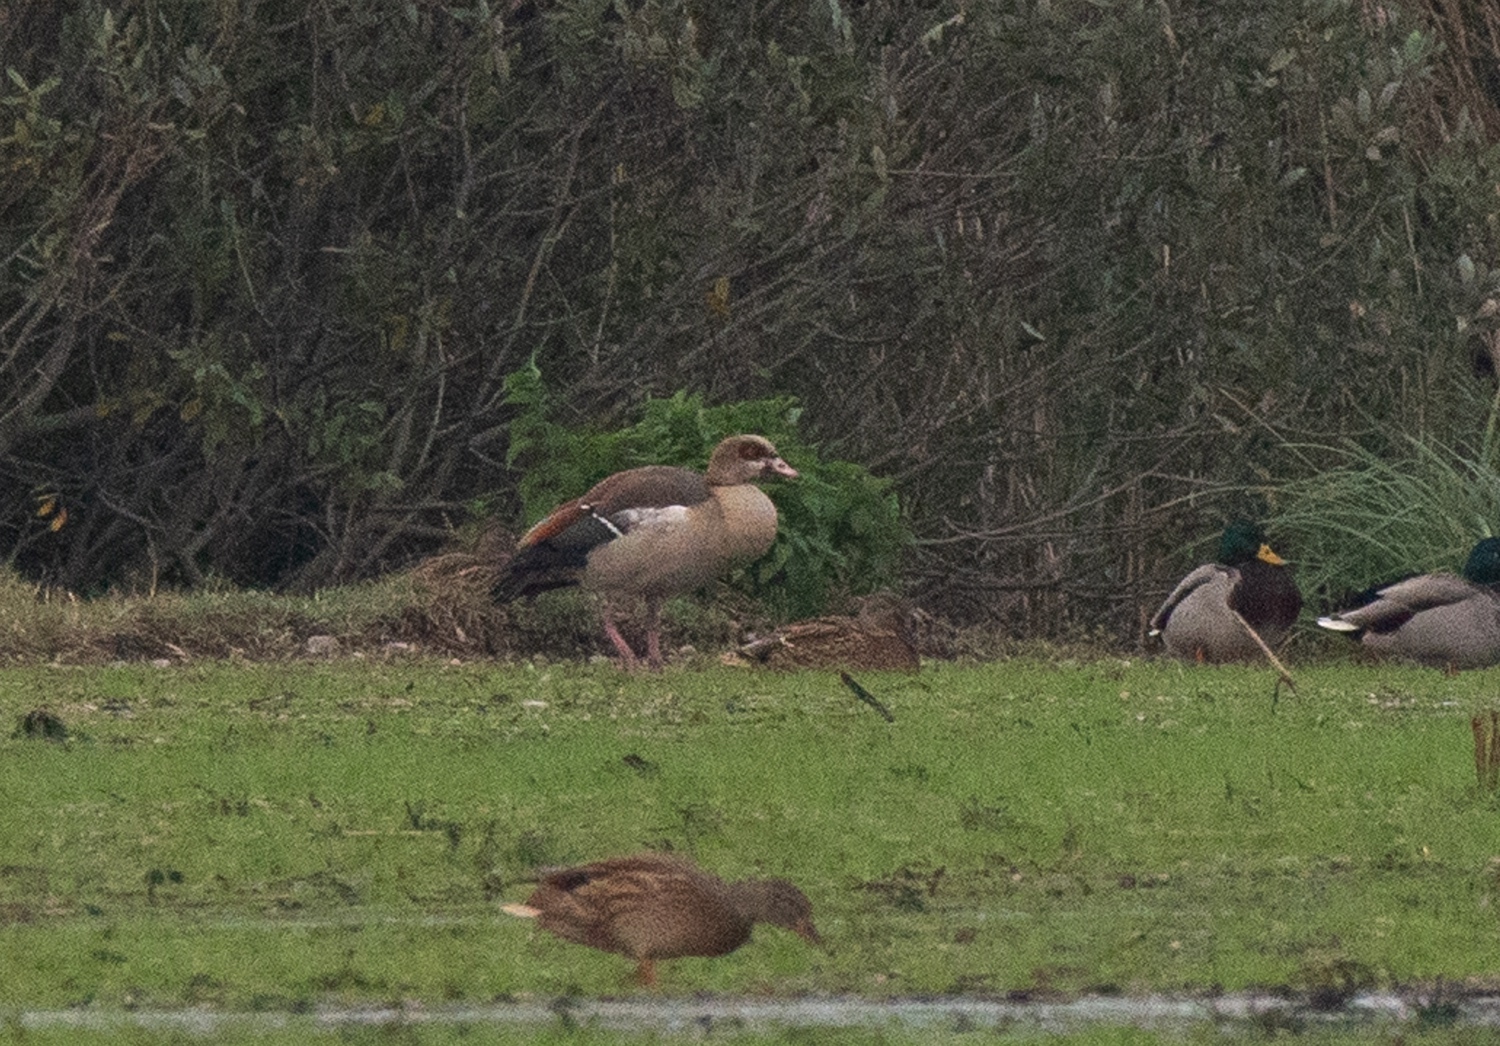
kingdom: Animalia
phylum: Chordata
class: Aves
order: Anseriformes
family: Anatidae
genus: Alopochen
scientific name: Alopochen aegyptiaca
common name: Egyptian goose
